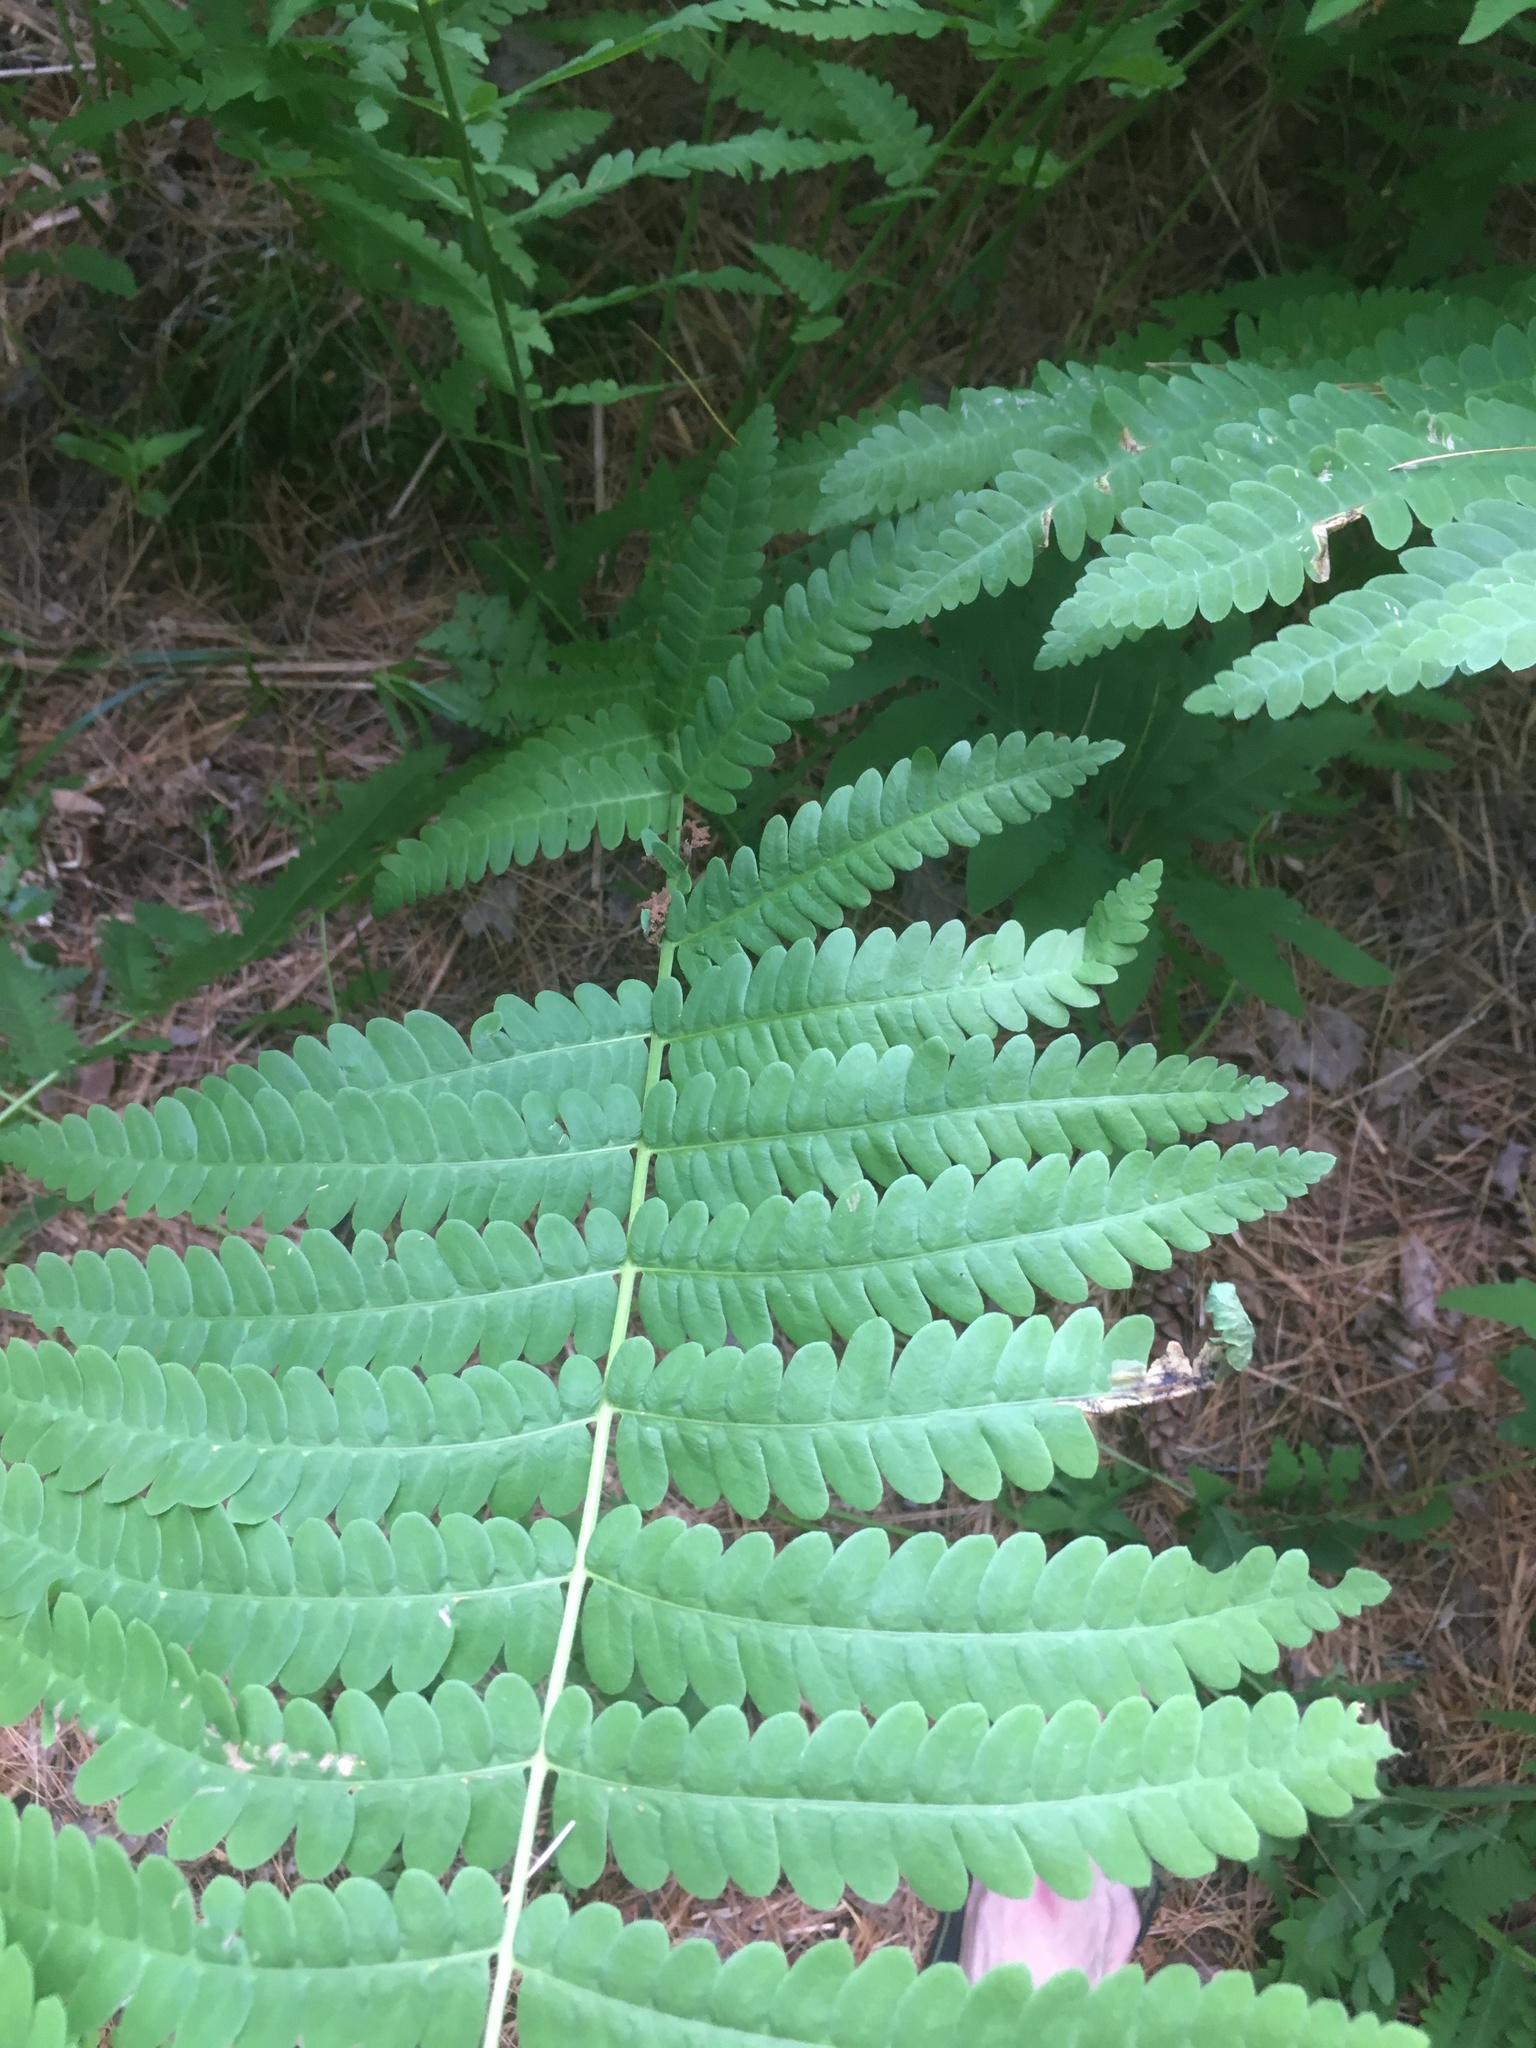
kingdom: Plantae
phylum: Tracheophyta
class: Polypodiopsida
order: Osmundales
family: Osmundaceae
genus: Claytosmunda
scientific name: Claytosmunda claytoniana
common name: Clayton's fern
